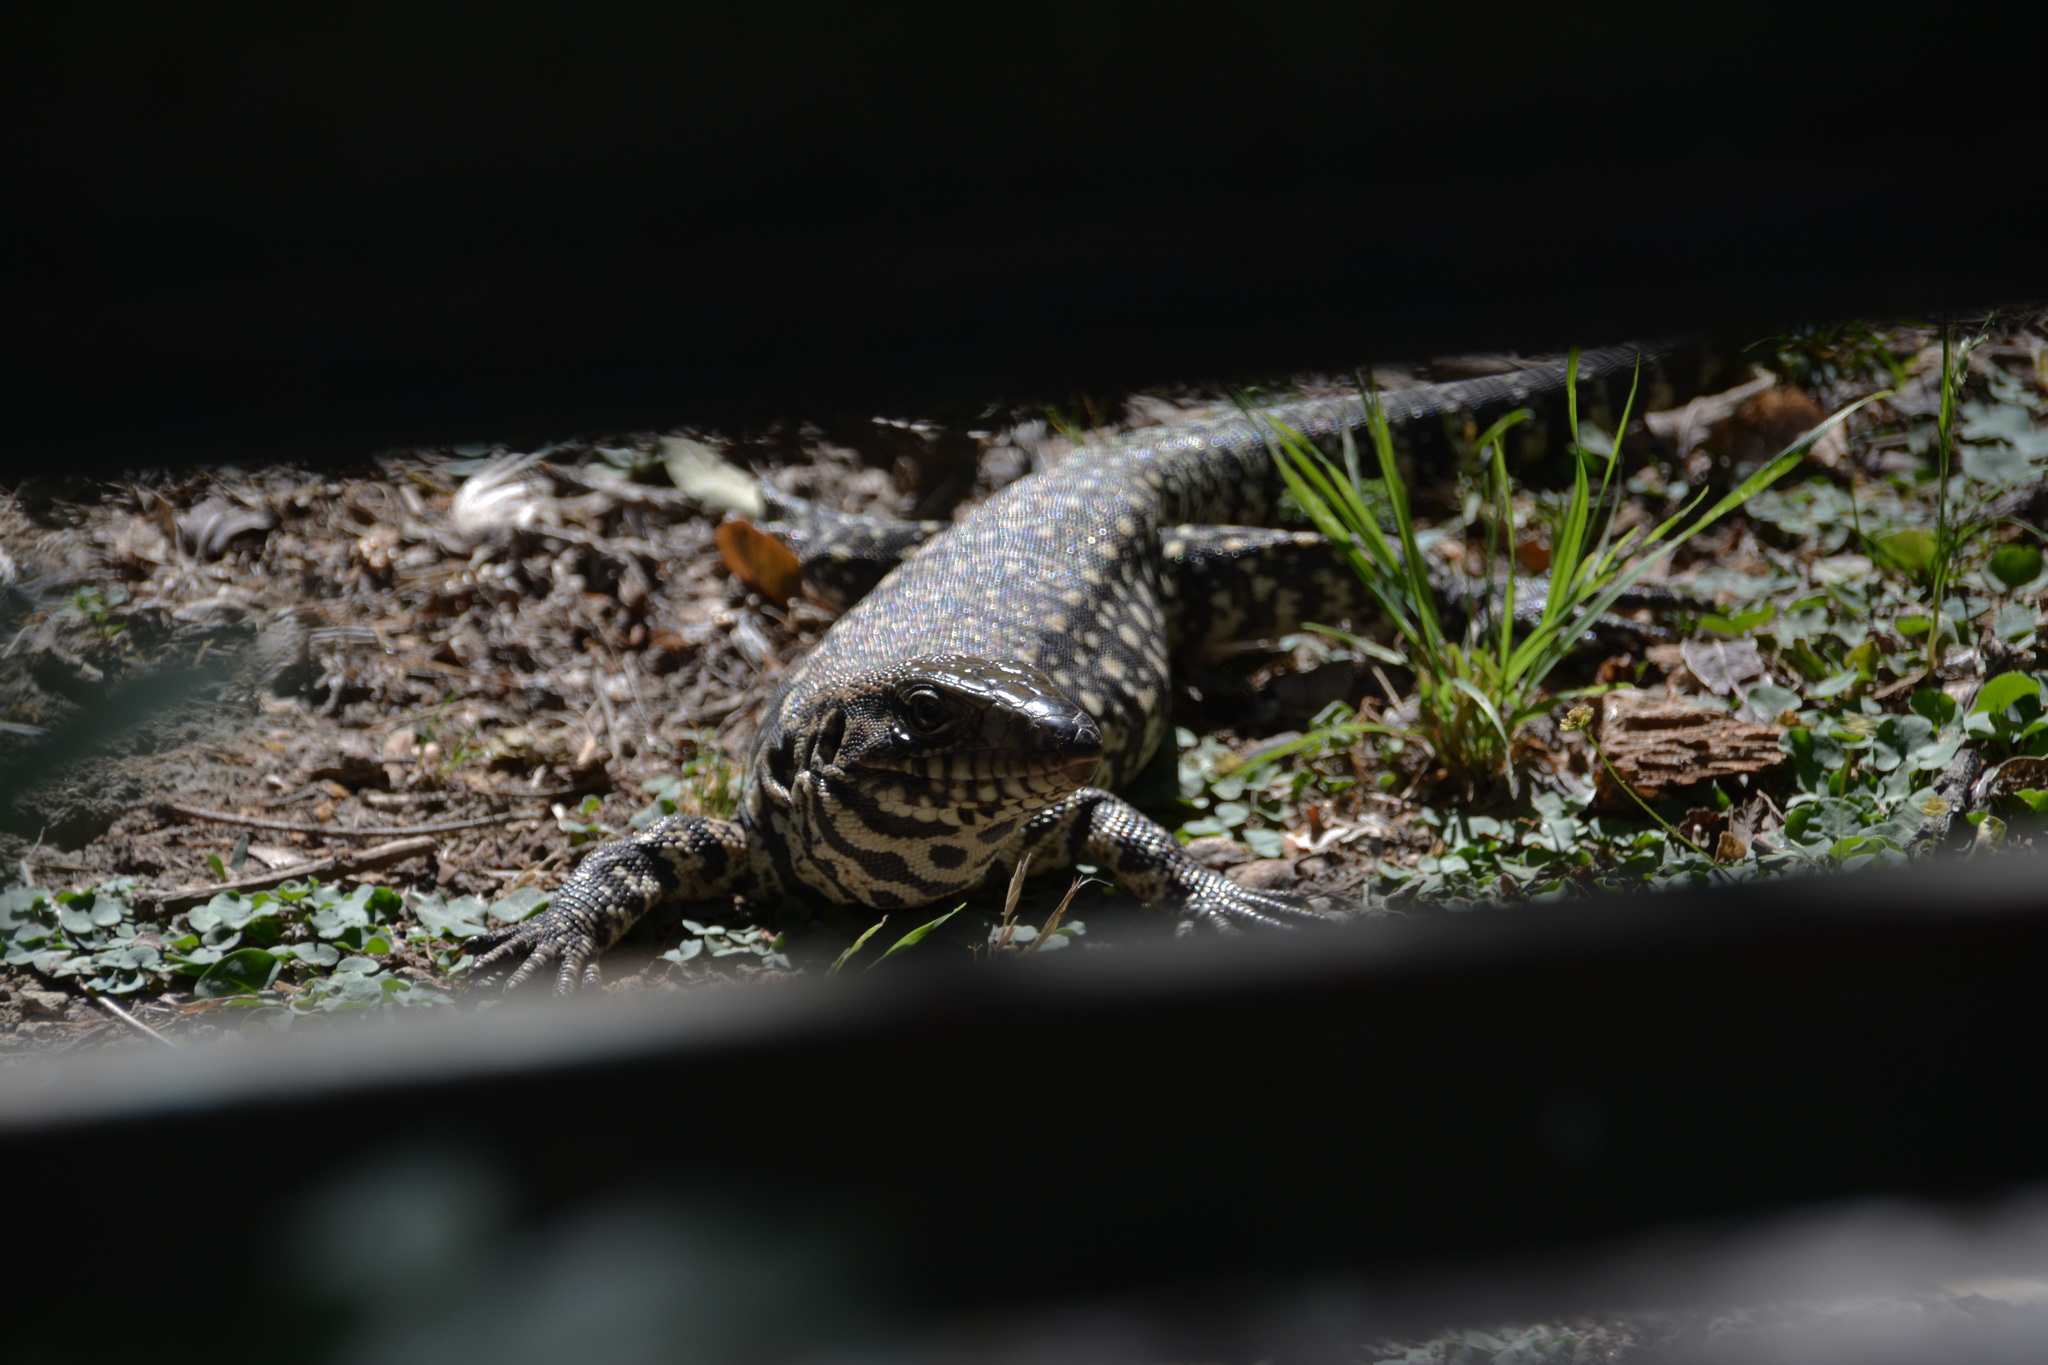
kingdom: Animalia
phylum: Chordata
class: Squamata
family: Teiidae
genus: Salvator
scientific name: Salvator merianae
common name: Argentine black and white tegu
